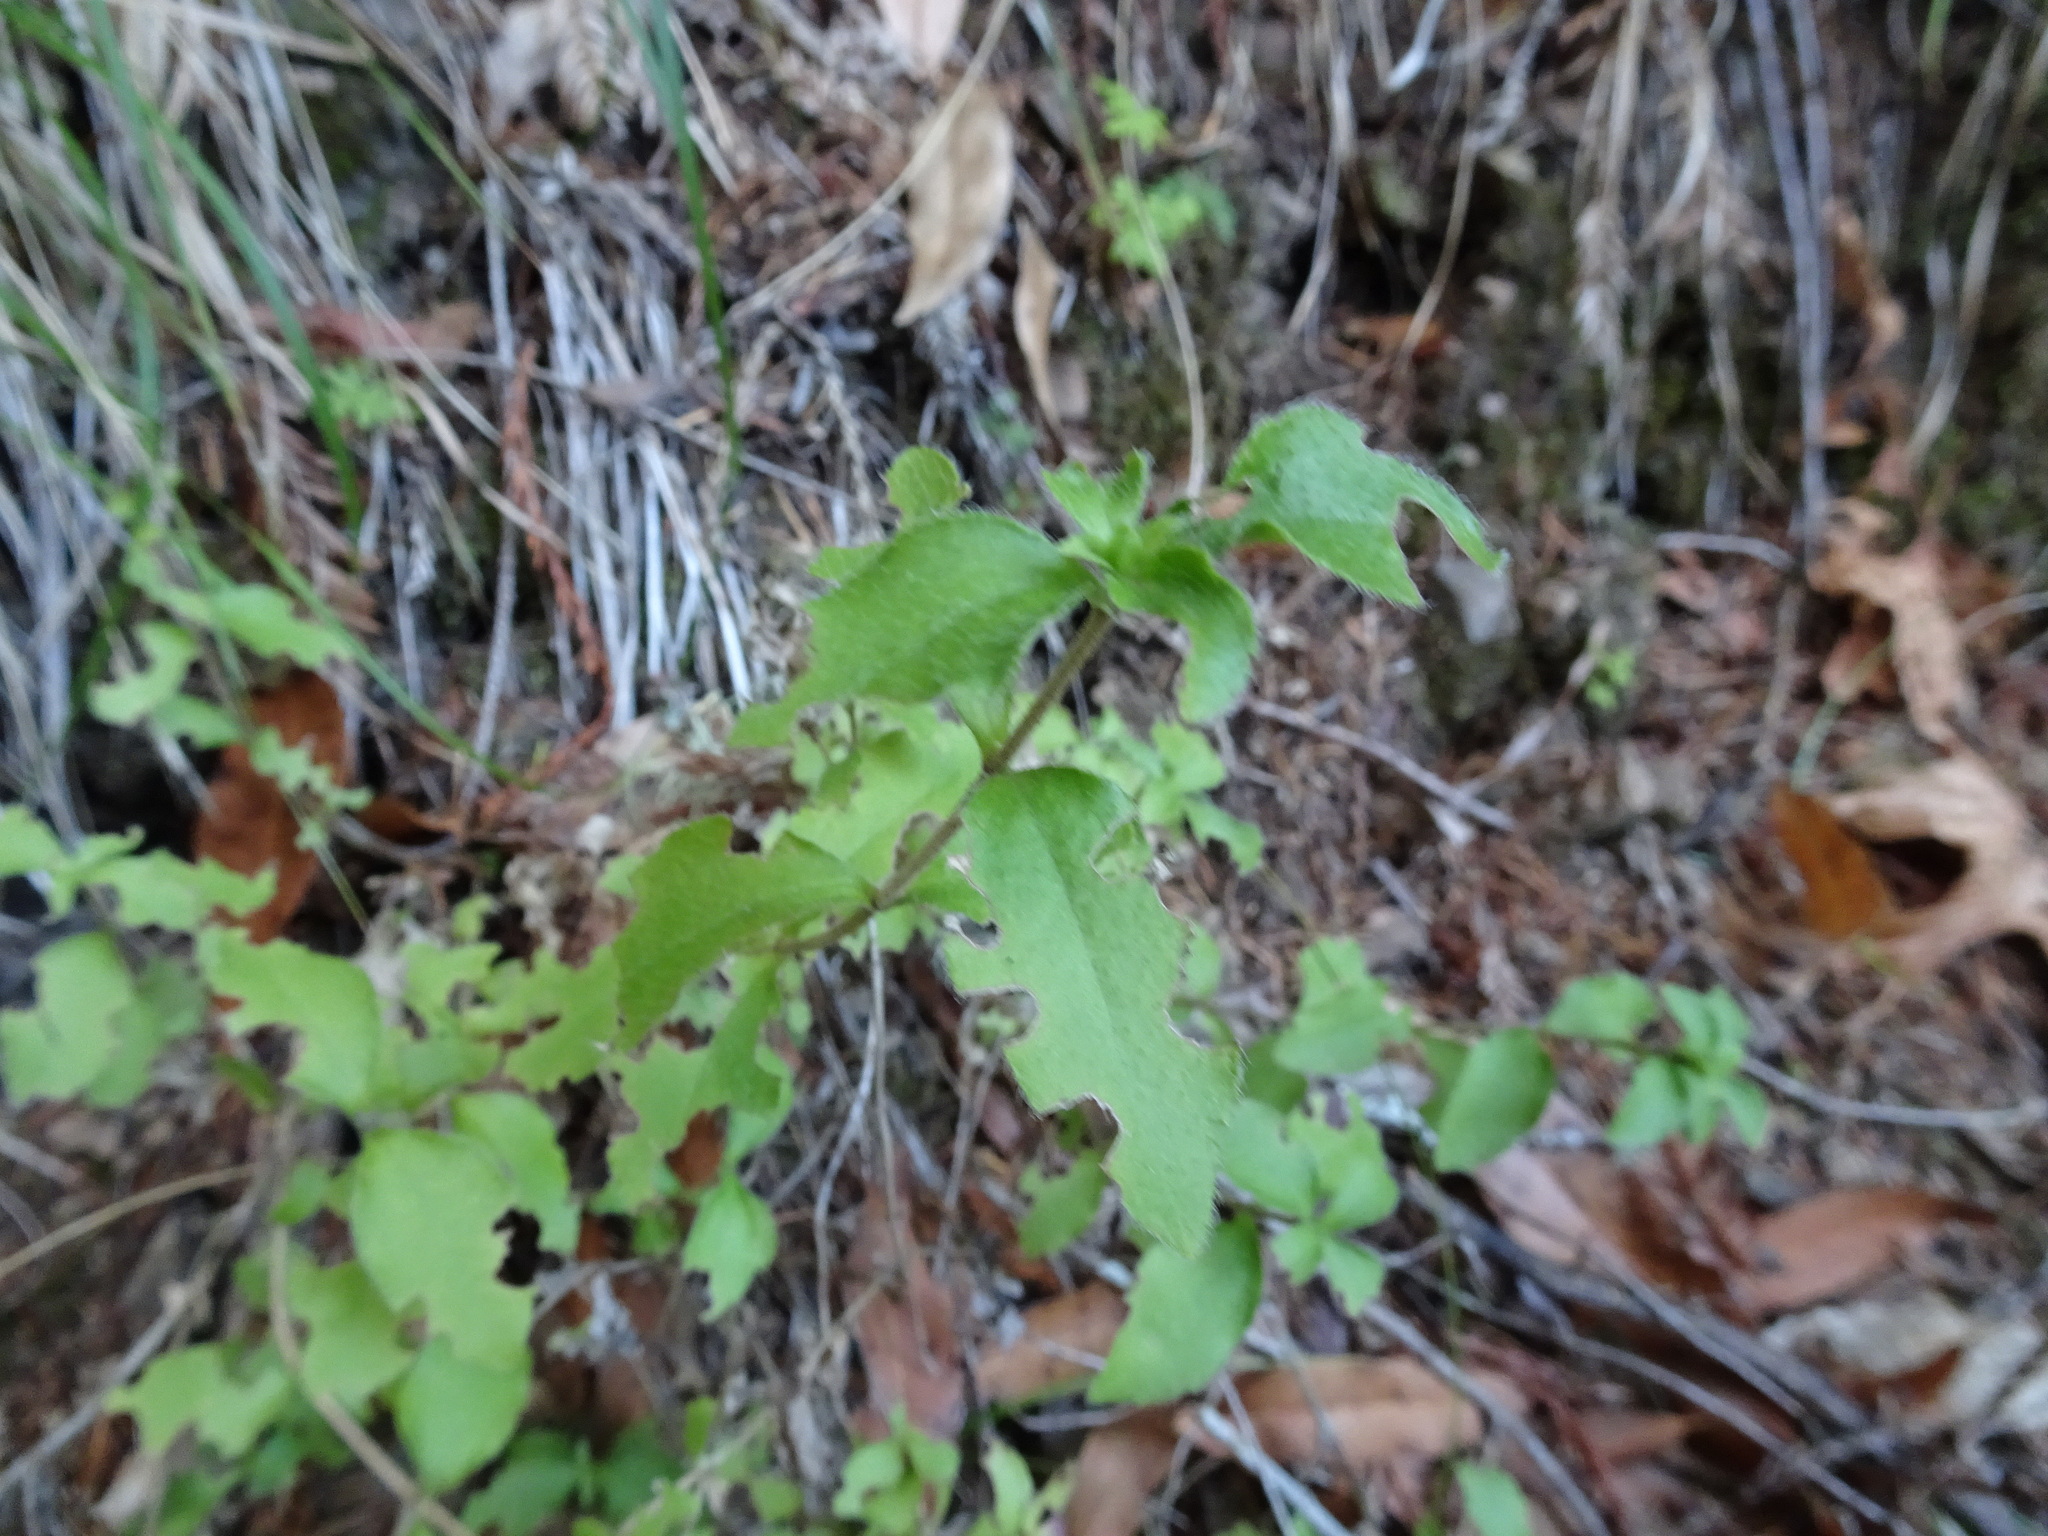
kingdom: Plantae
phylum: Tracheophyta
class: Magnoliopsida
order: Cornales
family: Hydrangeaceae
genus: Whipplea
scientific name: Whipplea modesta
